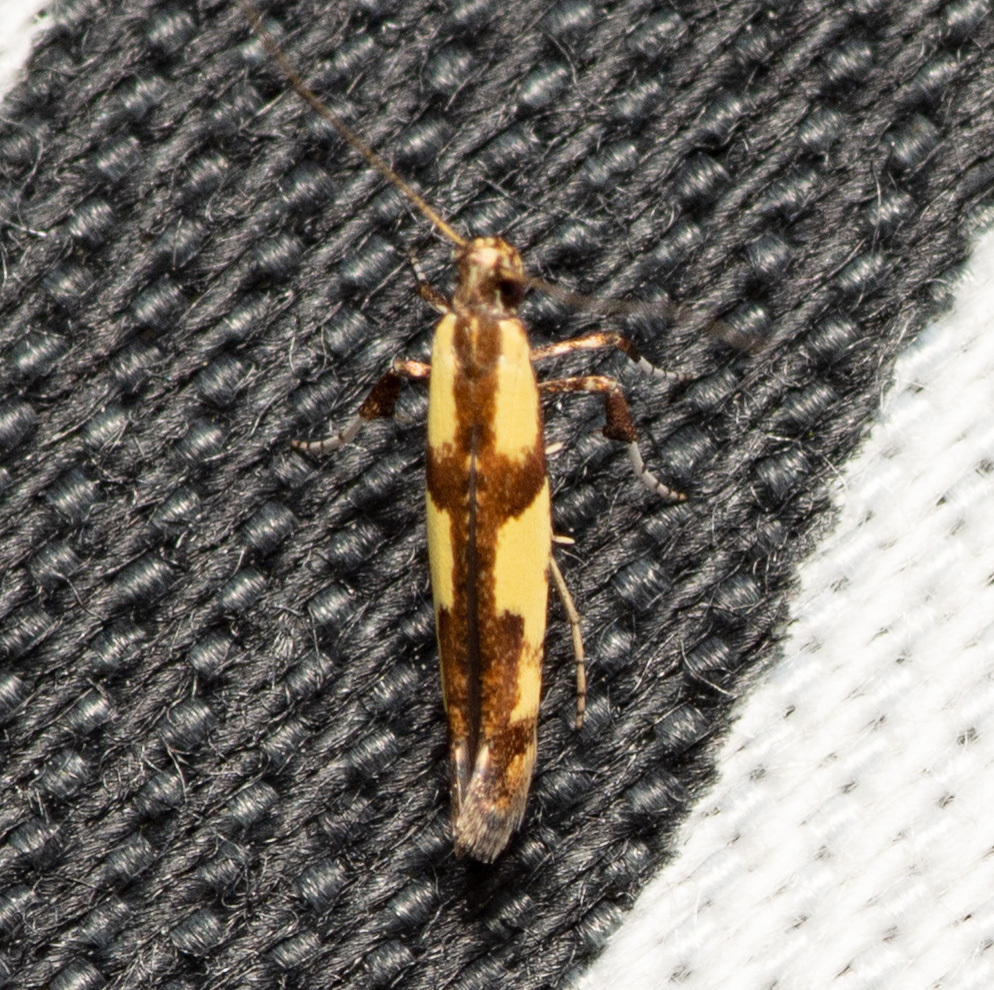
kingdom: Animalia
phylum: Arthropoda
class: Insecta
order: Lepidoptera
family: Gracillariidae
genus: Caloptilia
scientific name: Caloptilia blandella
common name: Walnut caloptilia moth
